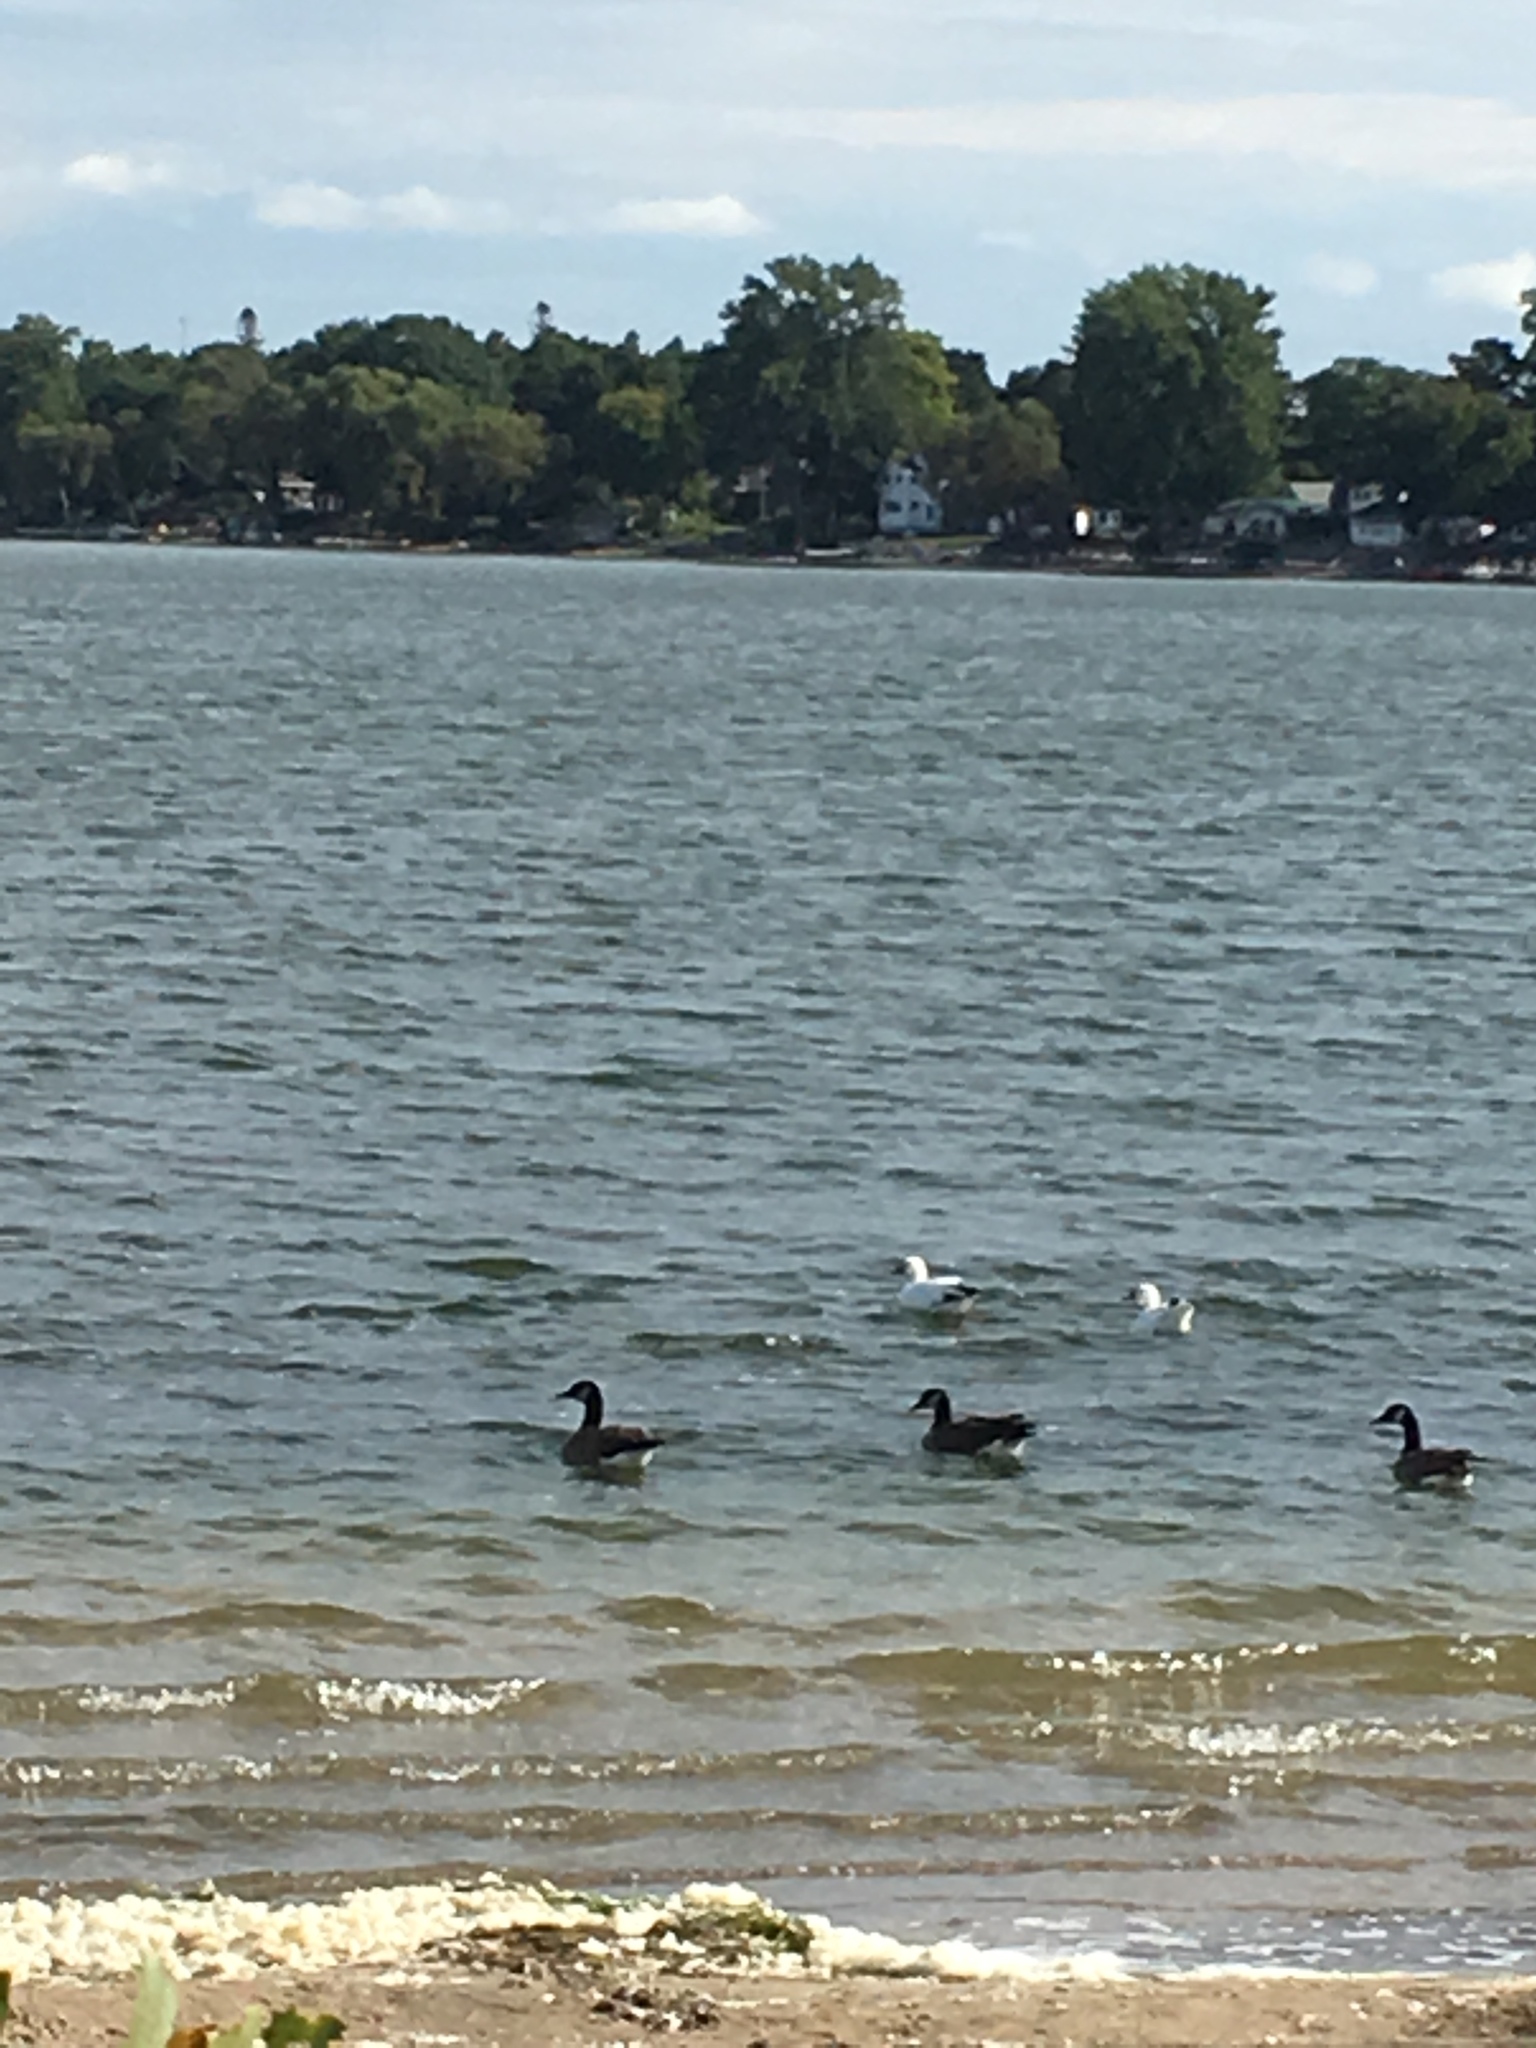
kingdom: Animalia
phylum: Chordata
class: Aves
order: Anseriformes
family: Anatidae
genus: Anser
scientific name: Anser caerulescens
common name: Snow goose
